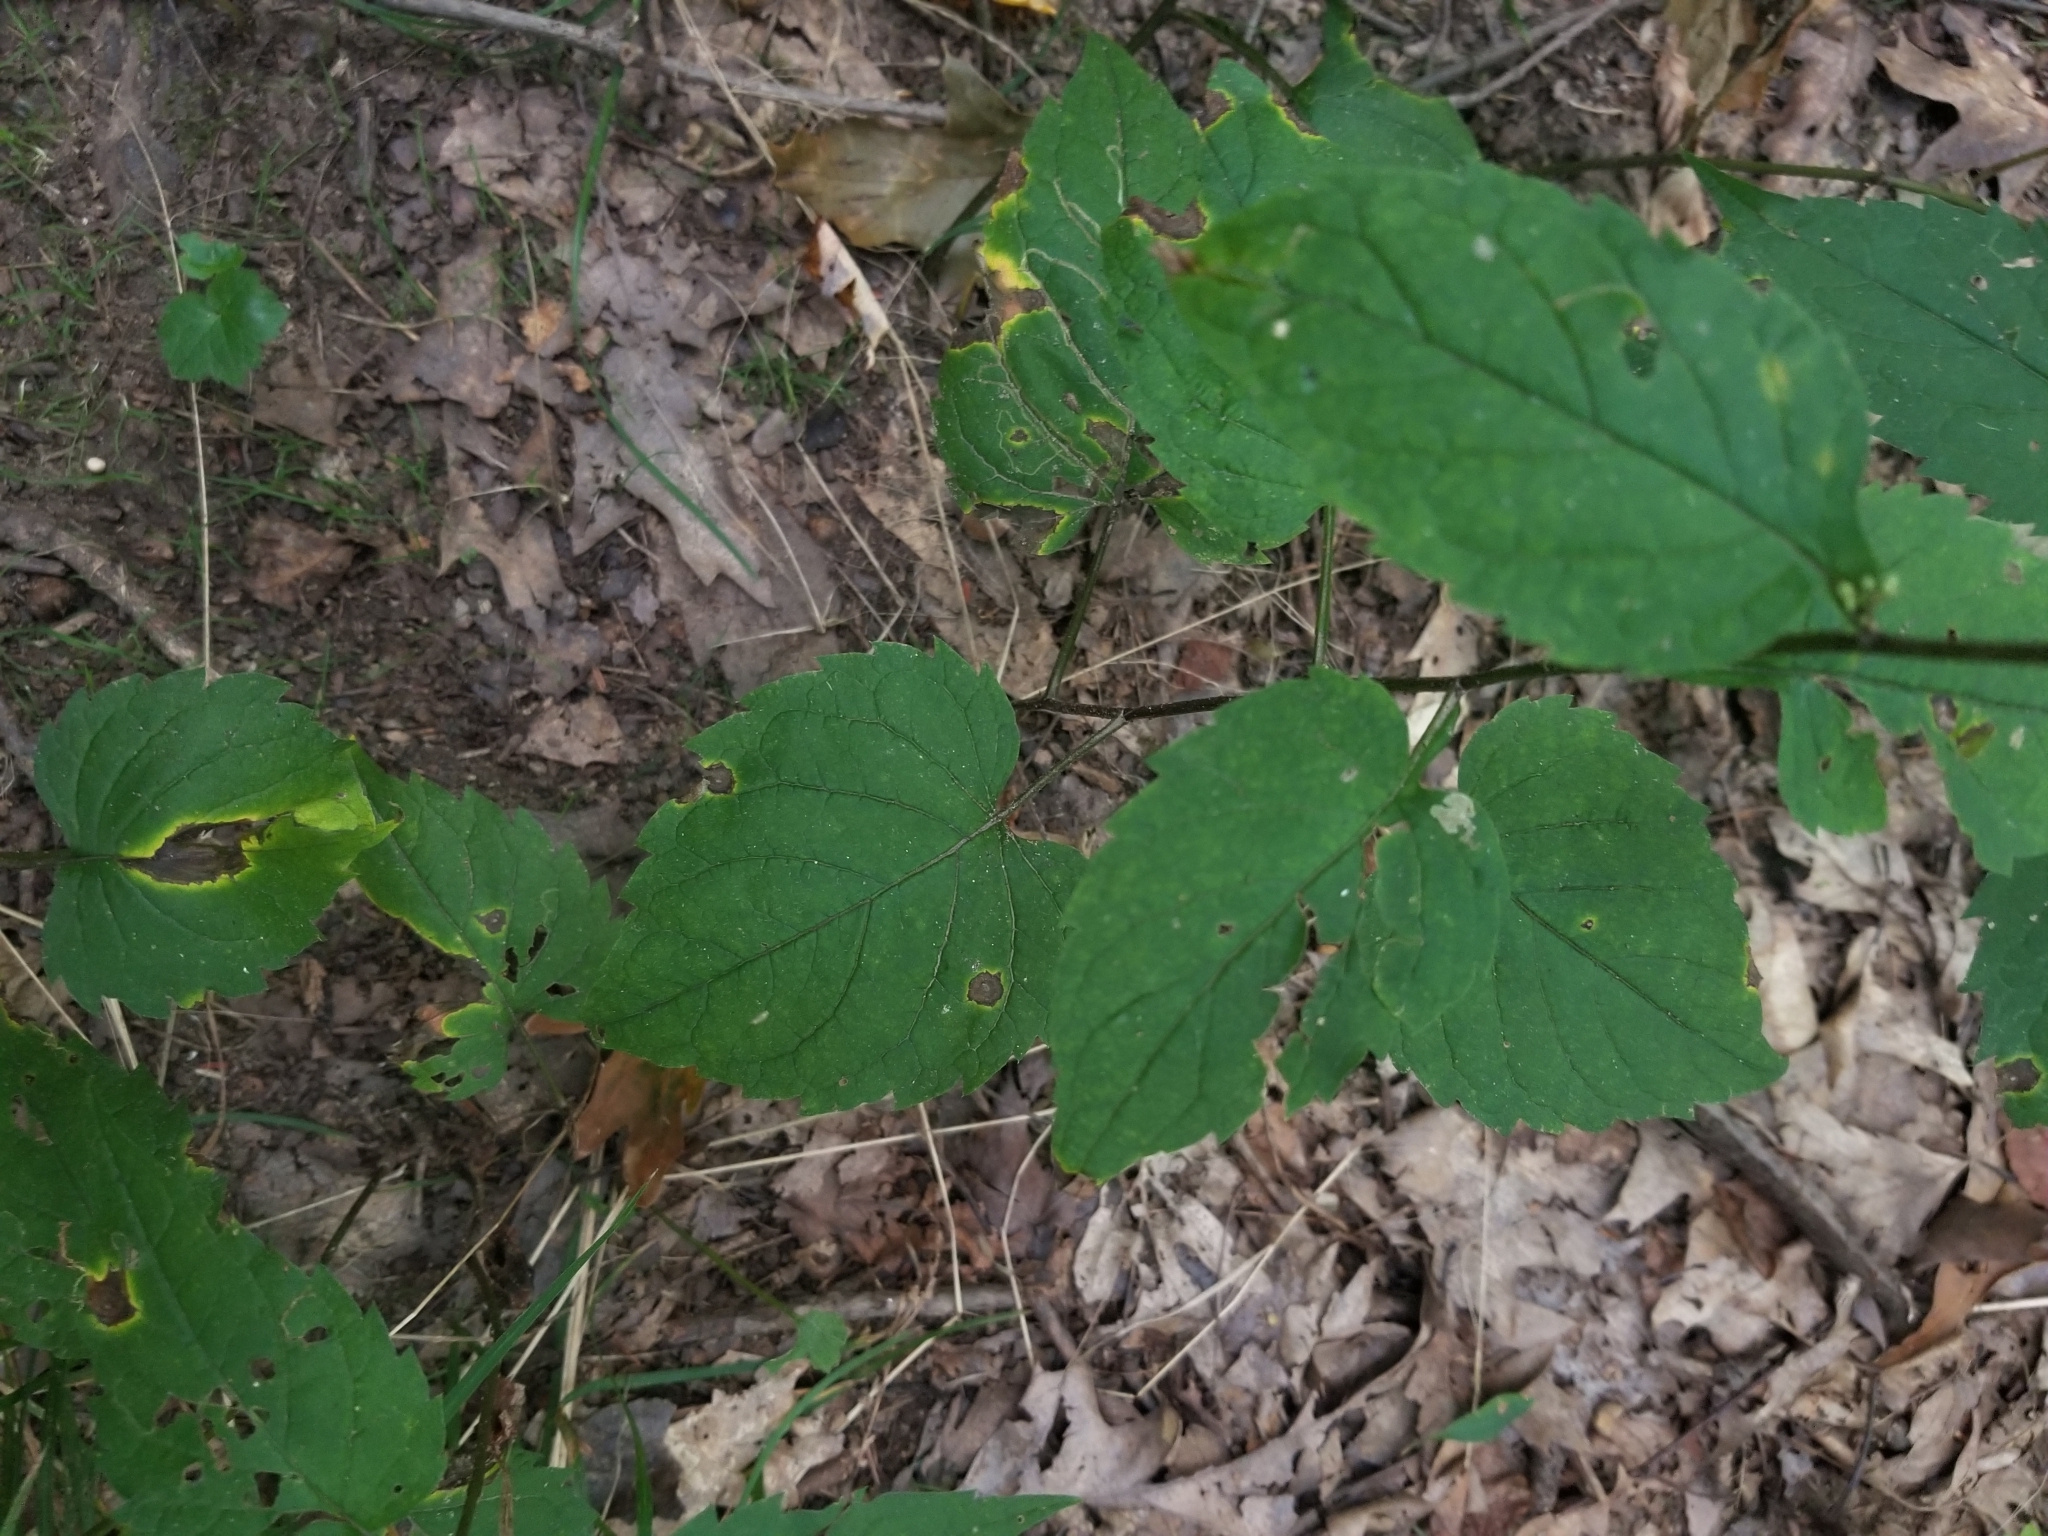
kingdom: Plantae
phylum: Tracheophyta
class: Magnoliopsida
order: Asterales
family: Asteraceae
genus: Eurybia
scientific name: Eurybia divaricata
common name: White wood aster
